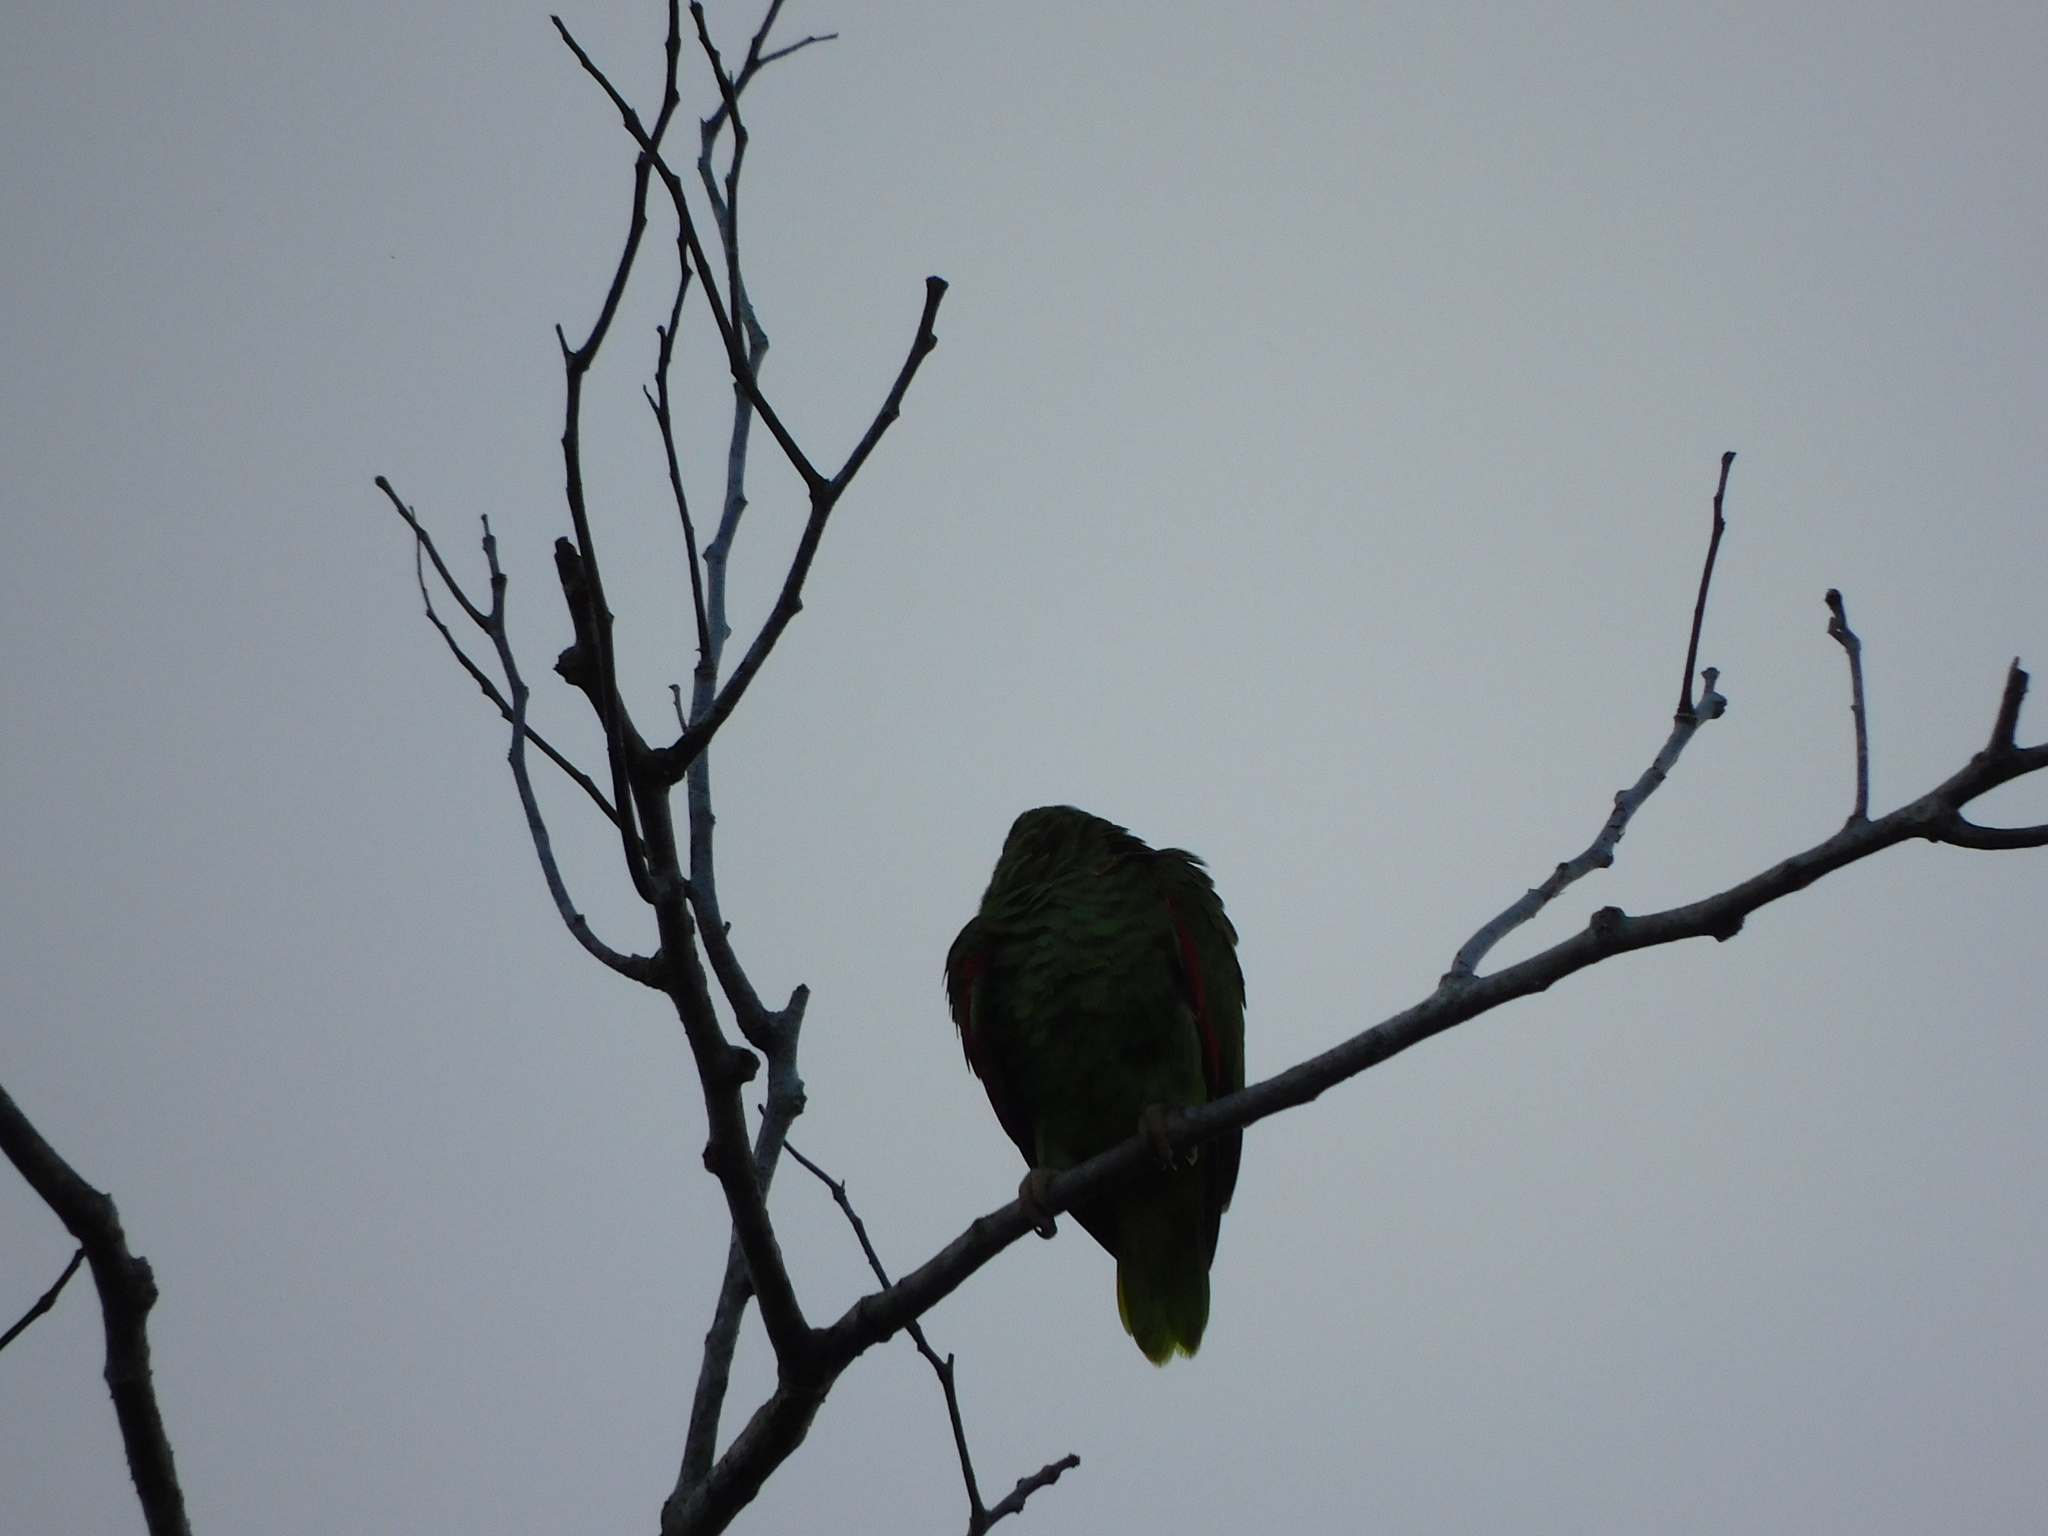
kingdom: Animalia
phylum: Chordata
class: Aves
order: Psittaciformes
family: Psittacidae
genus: Amazona
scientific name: Amazona albifrons
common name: White-fronted amazon
